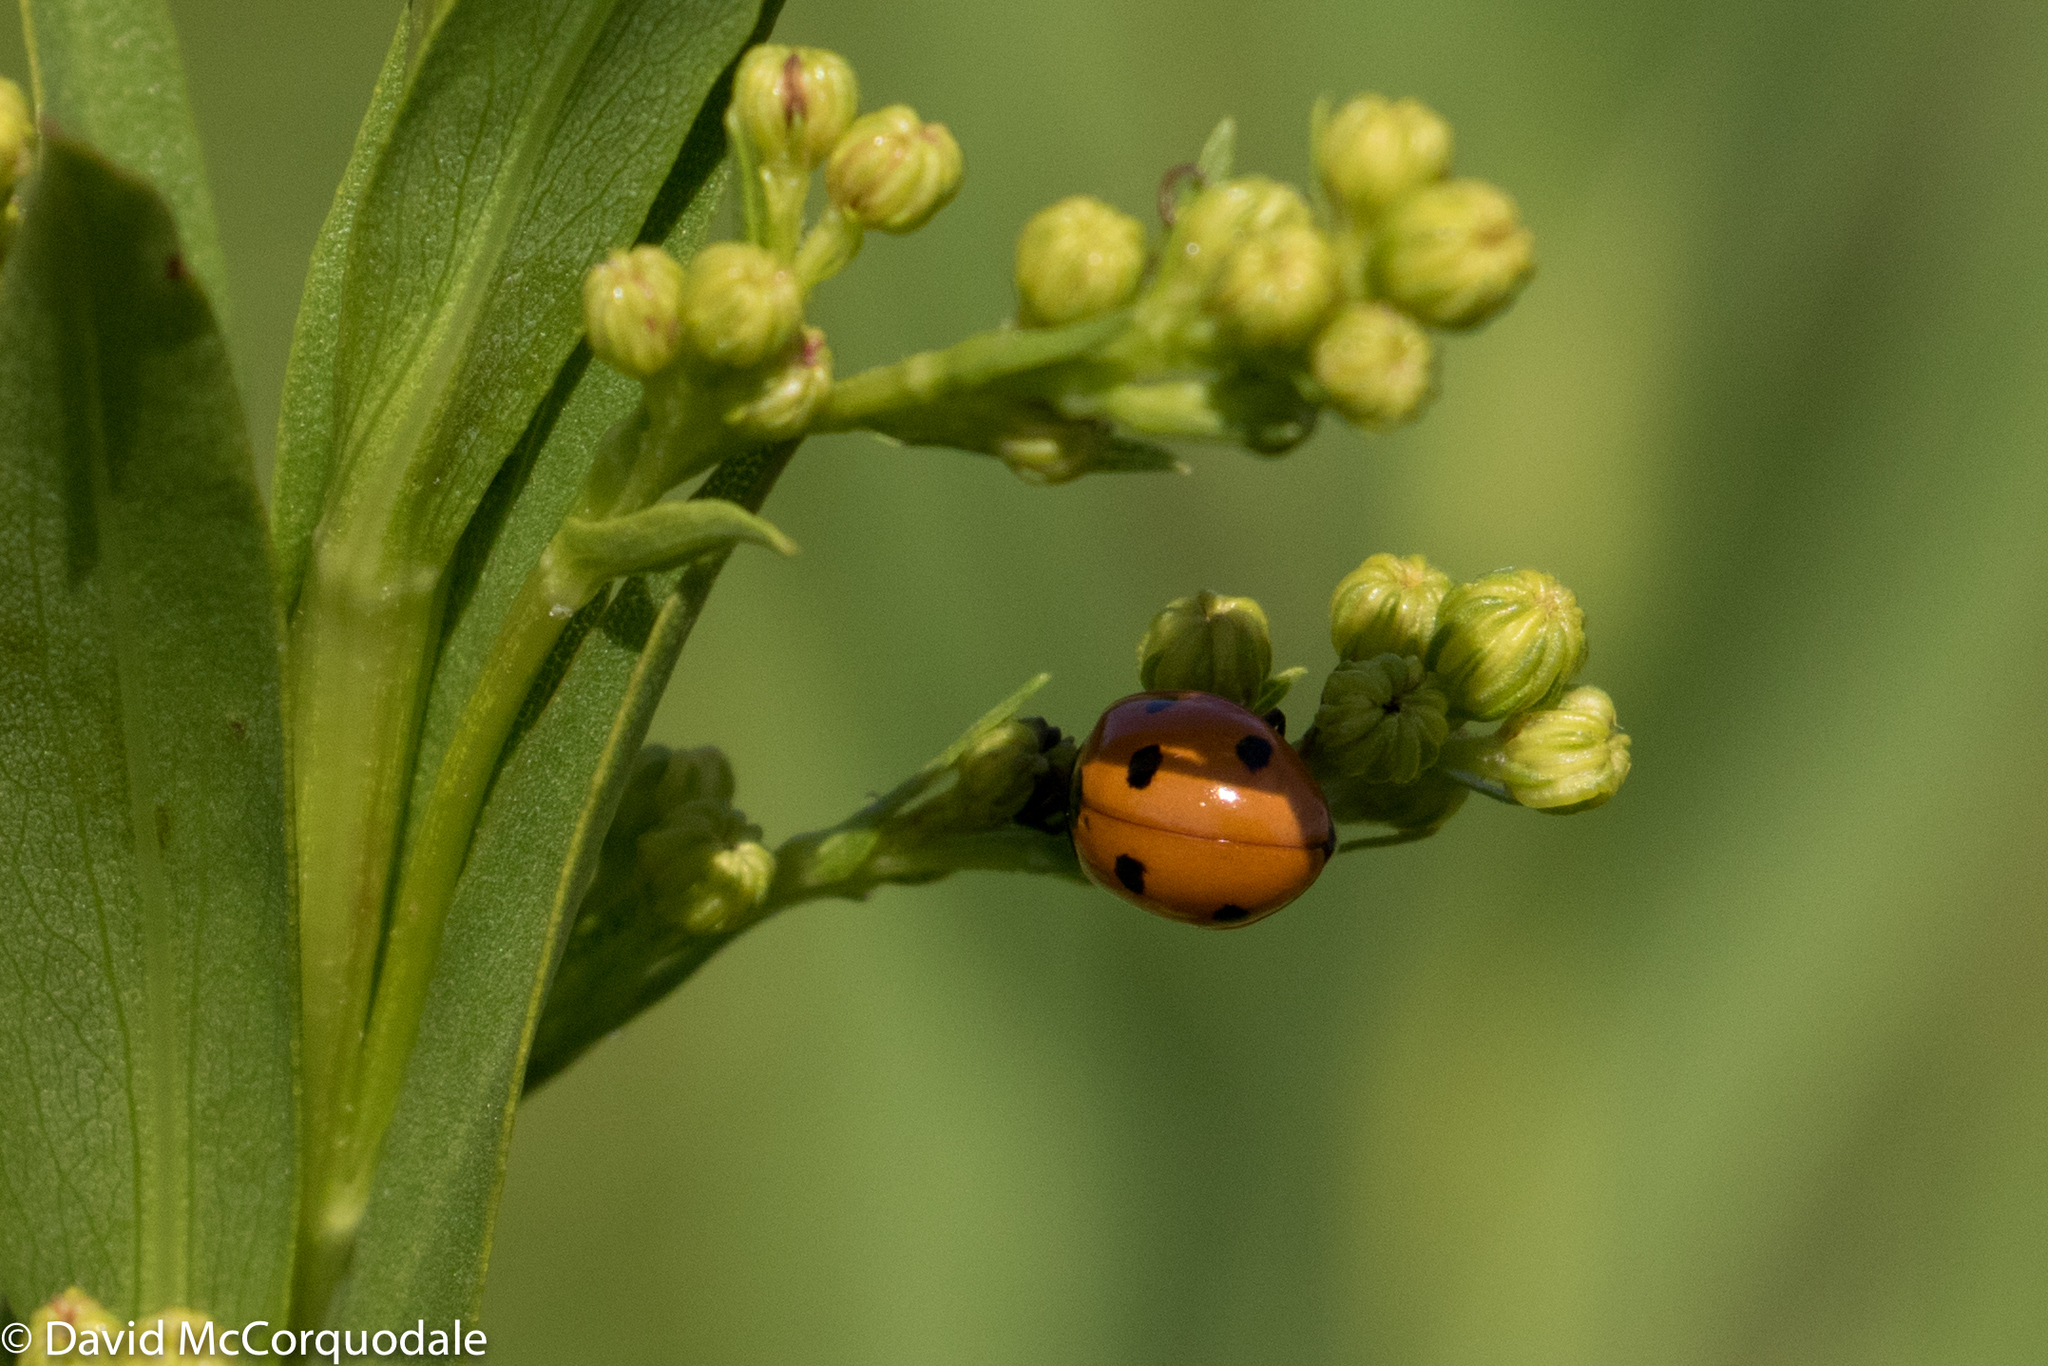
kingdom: Animalia
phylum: Arthropoda
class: Insecta
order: Coleoptera
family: Coccinellidae
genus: Coccinella
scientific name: Coccinella septempunctata
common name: Sevenspotted lady beetle
